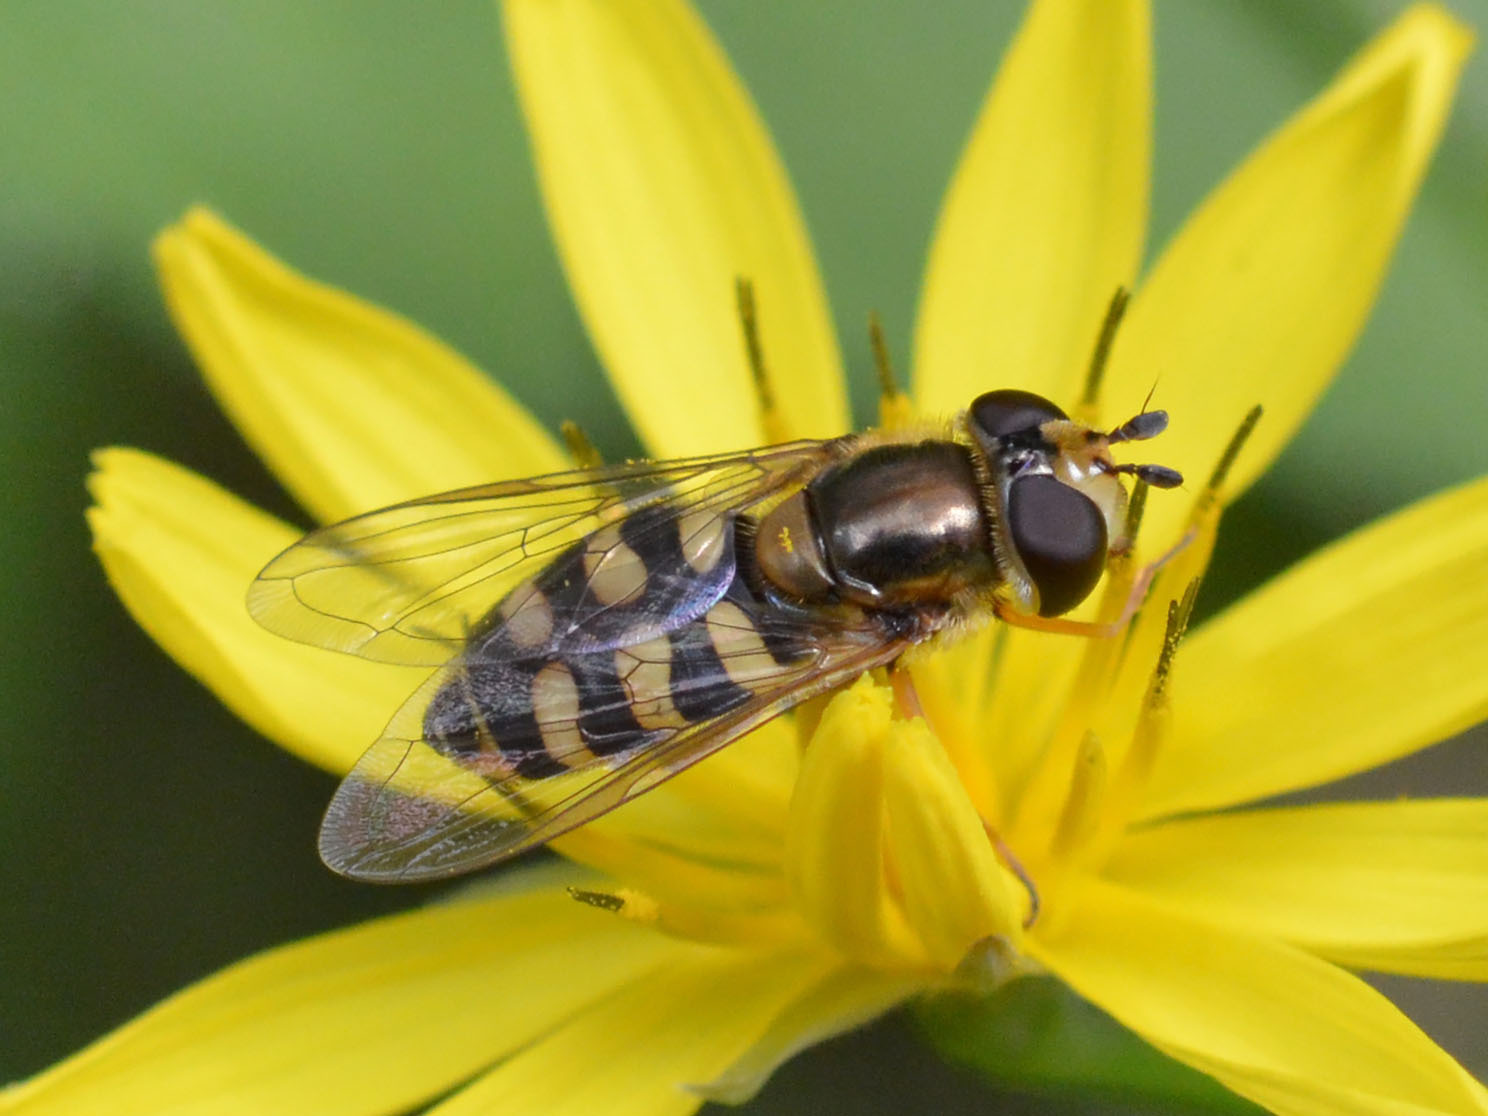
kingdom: Animalia
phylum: Arthropoda
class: Insecta
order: Diptera
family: Syrphidae
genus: Eupeodes
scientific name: Eupeodes corollae
